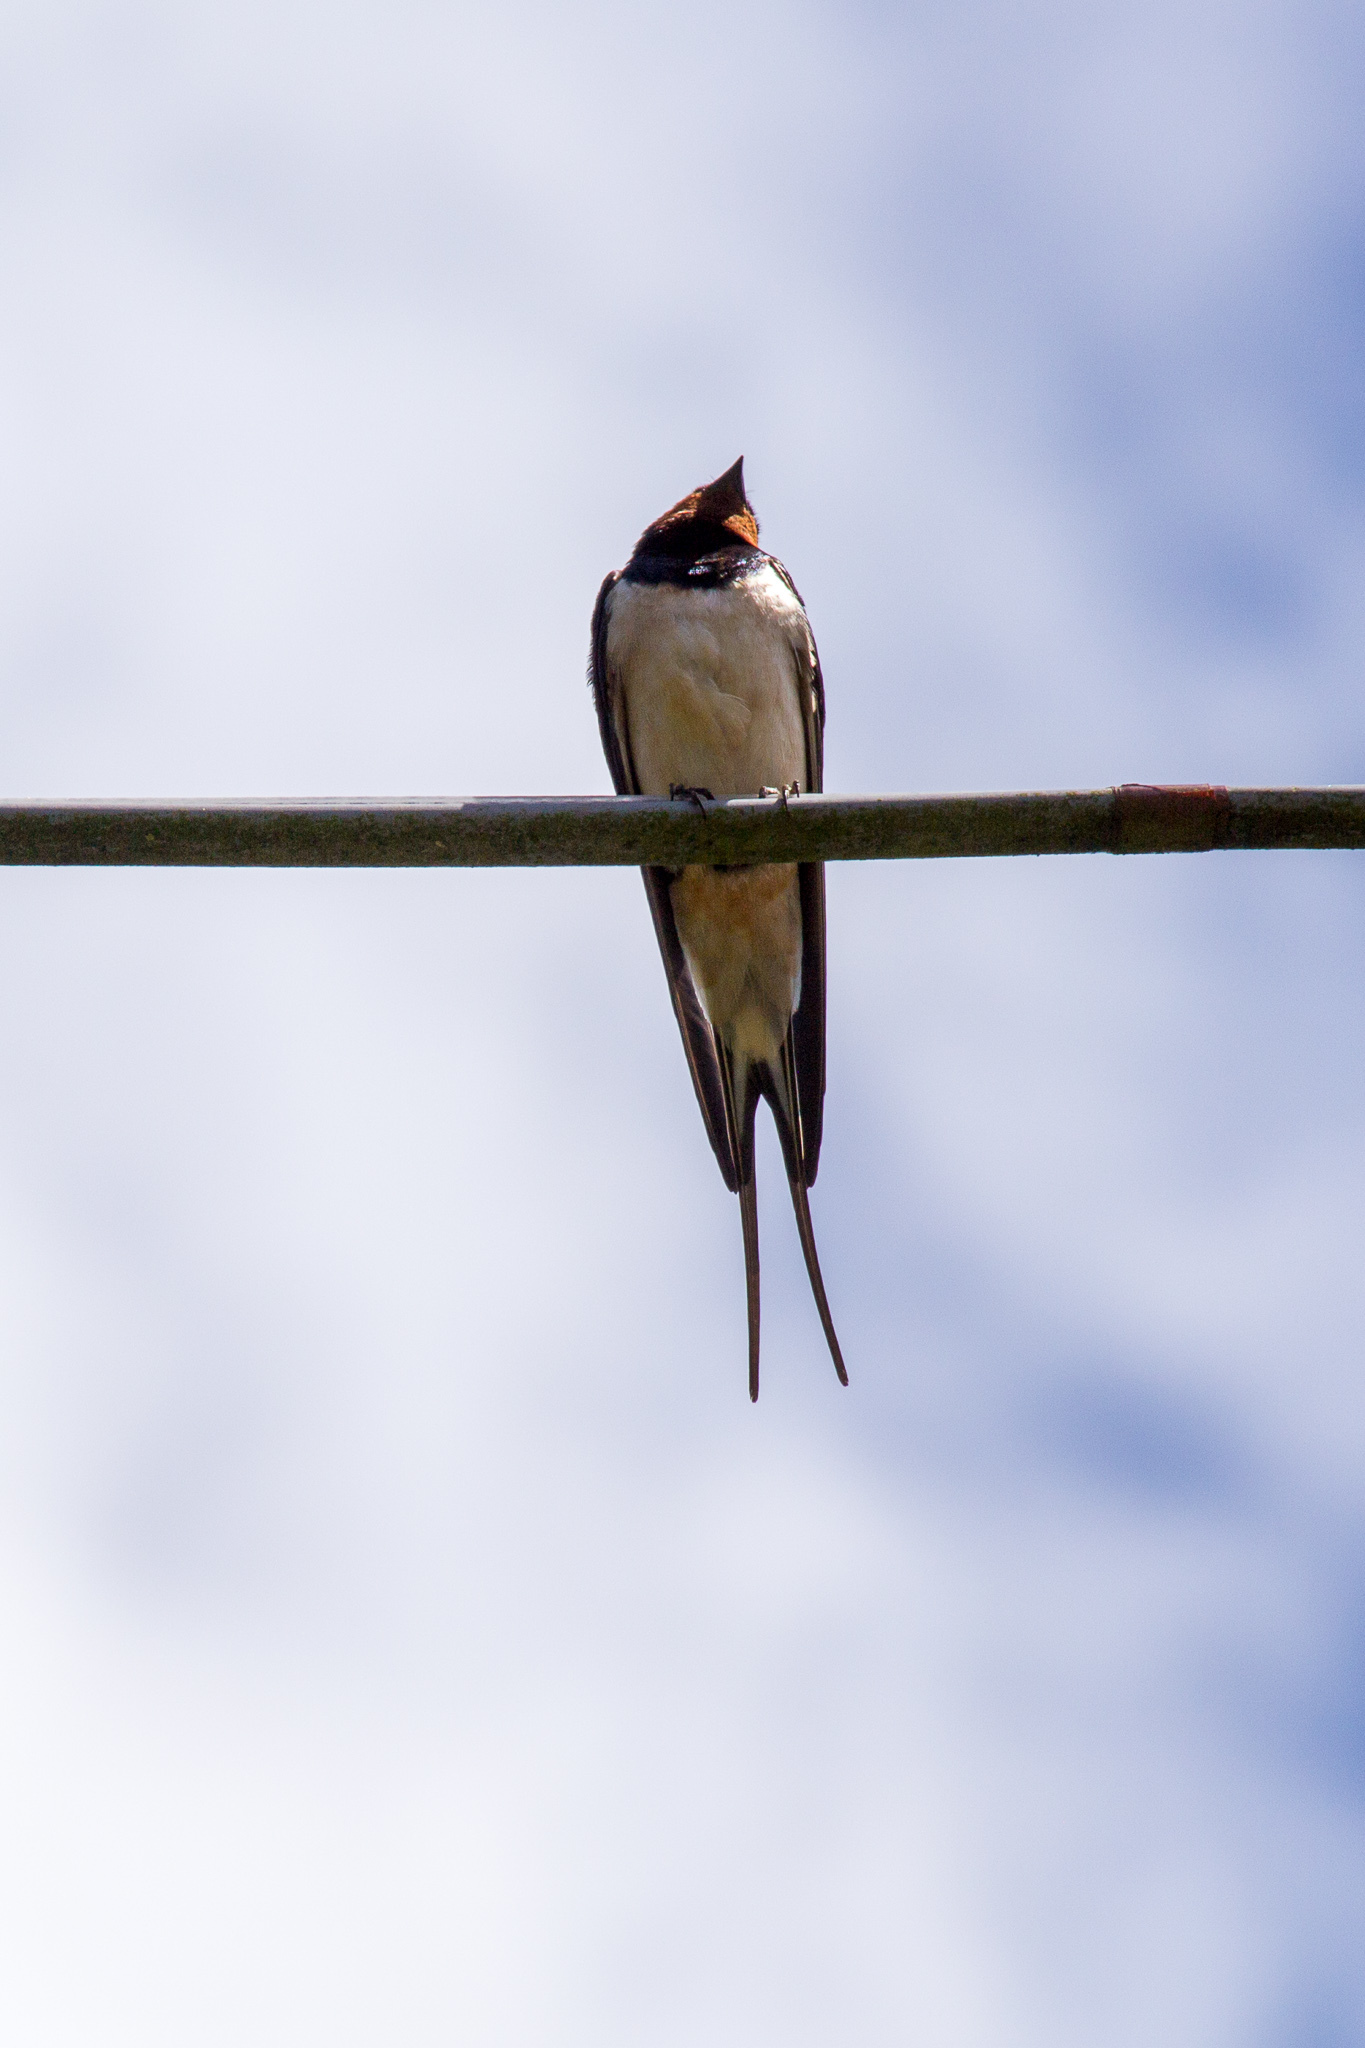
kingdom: Animalia
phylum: Chordata
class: Aves
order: Passeriformes
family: Hirundinidae
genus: Hirundo
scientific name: Hirundo rustica
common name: Barn swallow
